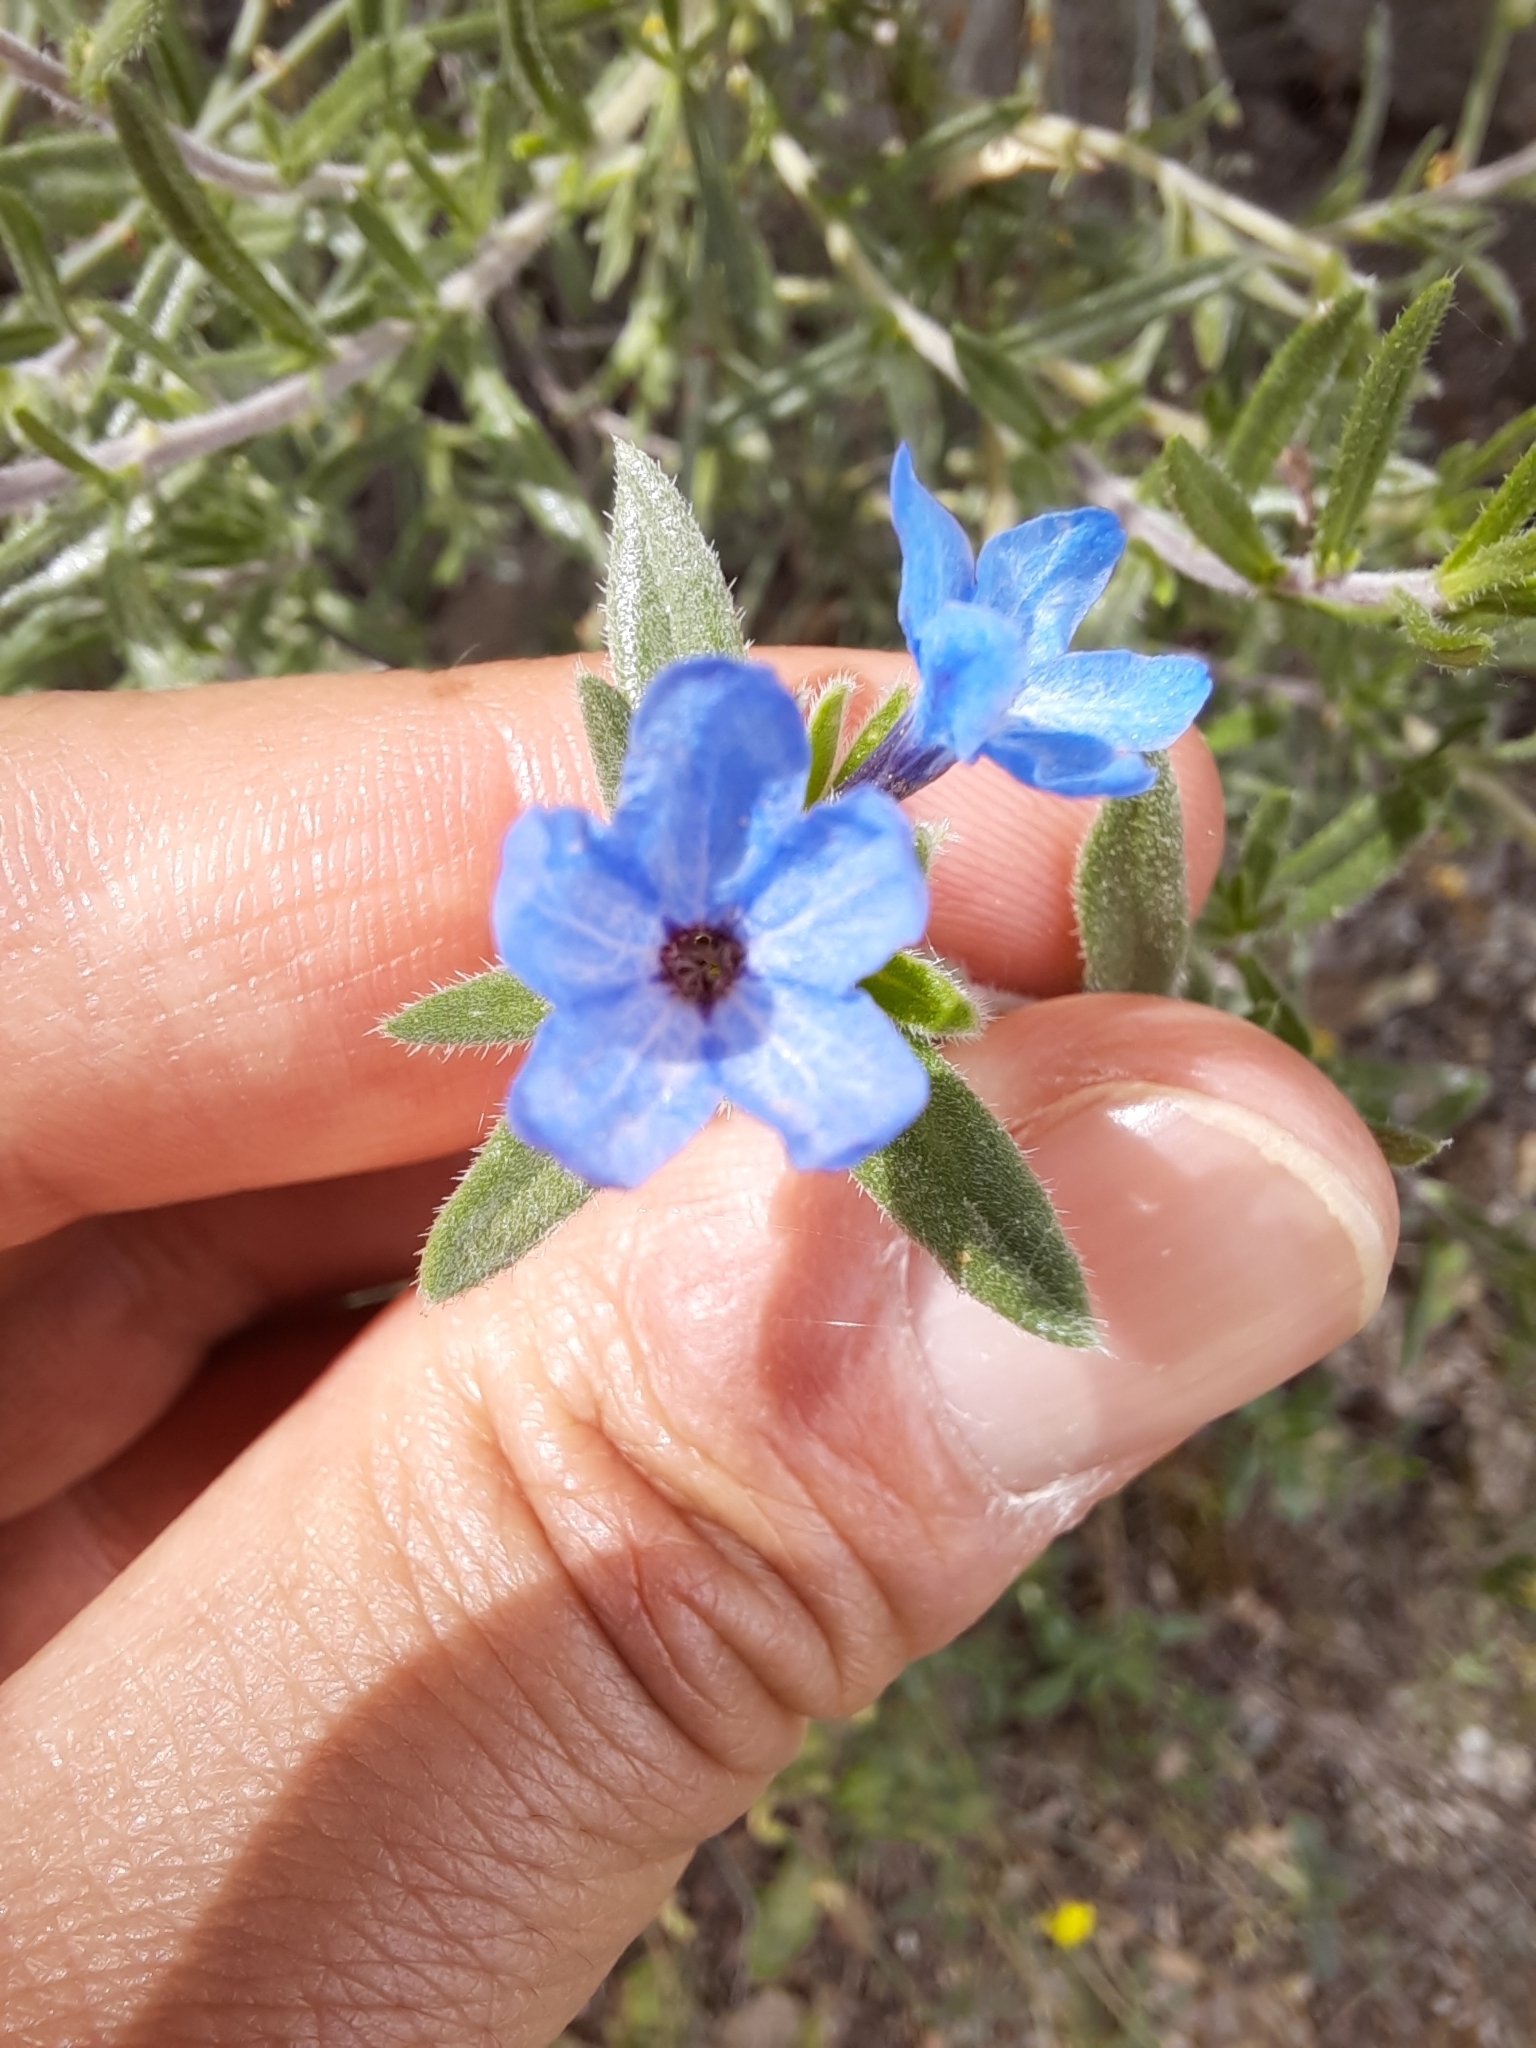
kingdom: Plantae
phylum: Tracheophyta
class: Magnoliopsida
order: Boraginales
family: Boraginaceae
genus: Lithodora
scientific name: Lithodora fruticosa
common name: Shrubby gromwell
